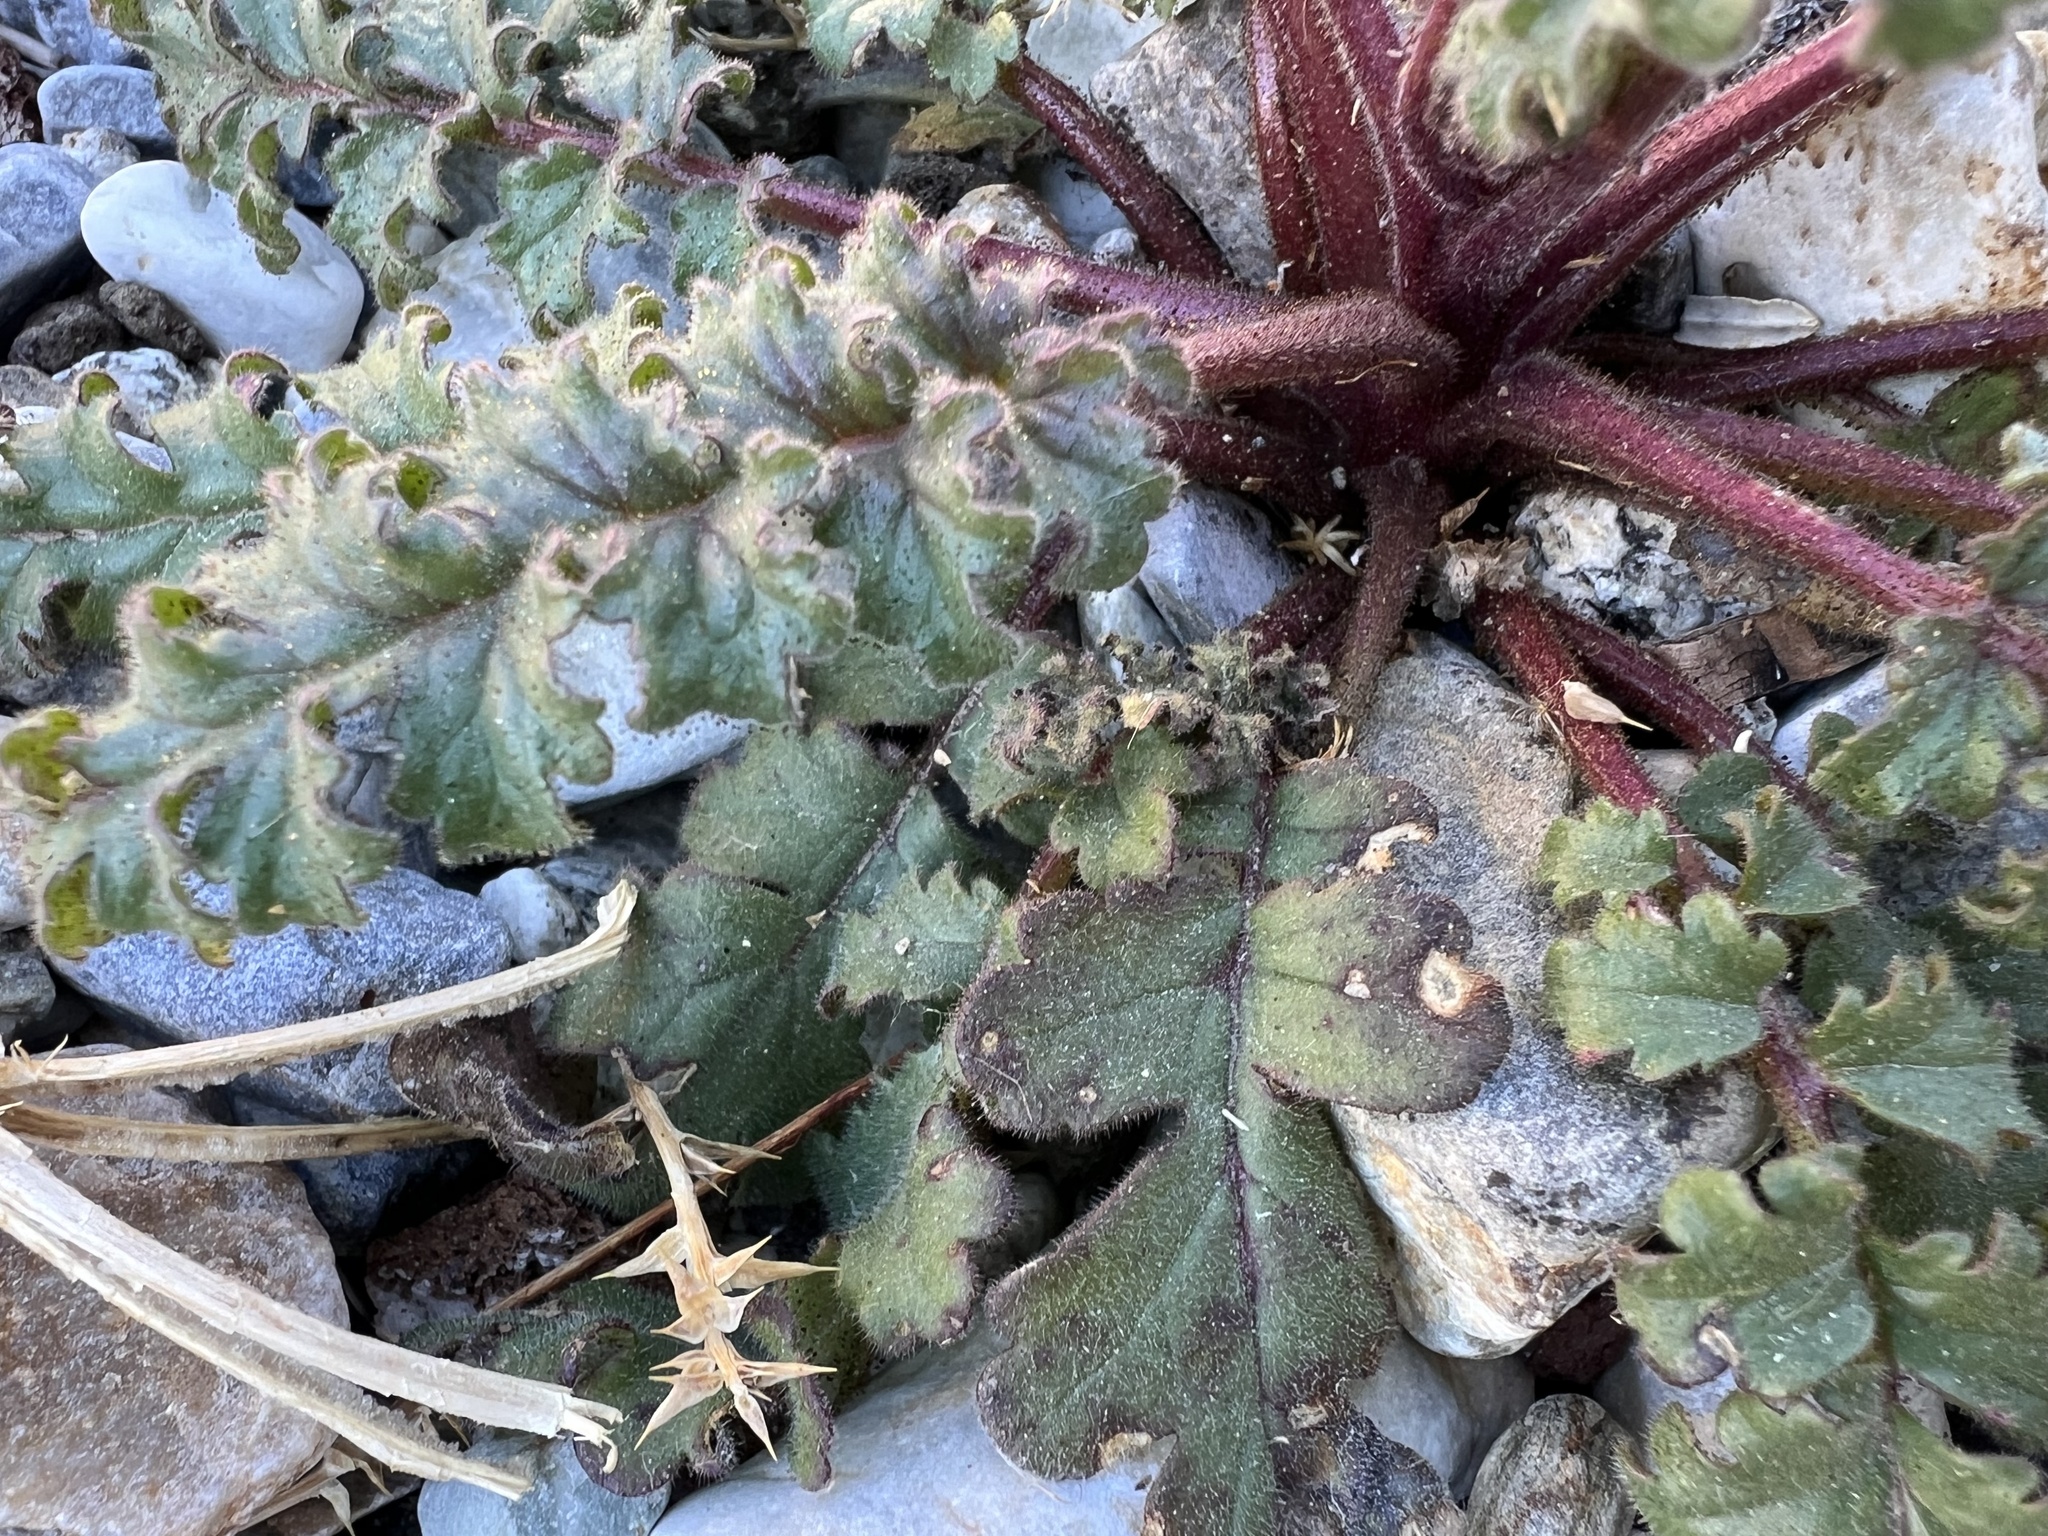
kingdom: Plantae
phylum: Tracheophyta
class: Magnoliopsida
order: Boraginales
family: Hydrophyllaceae
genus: Phacelia
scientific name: Phacelia crenulata
